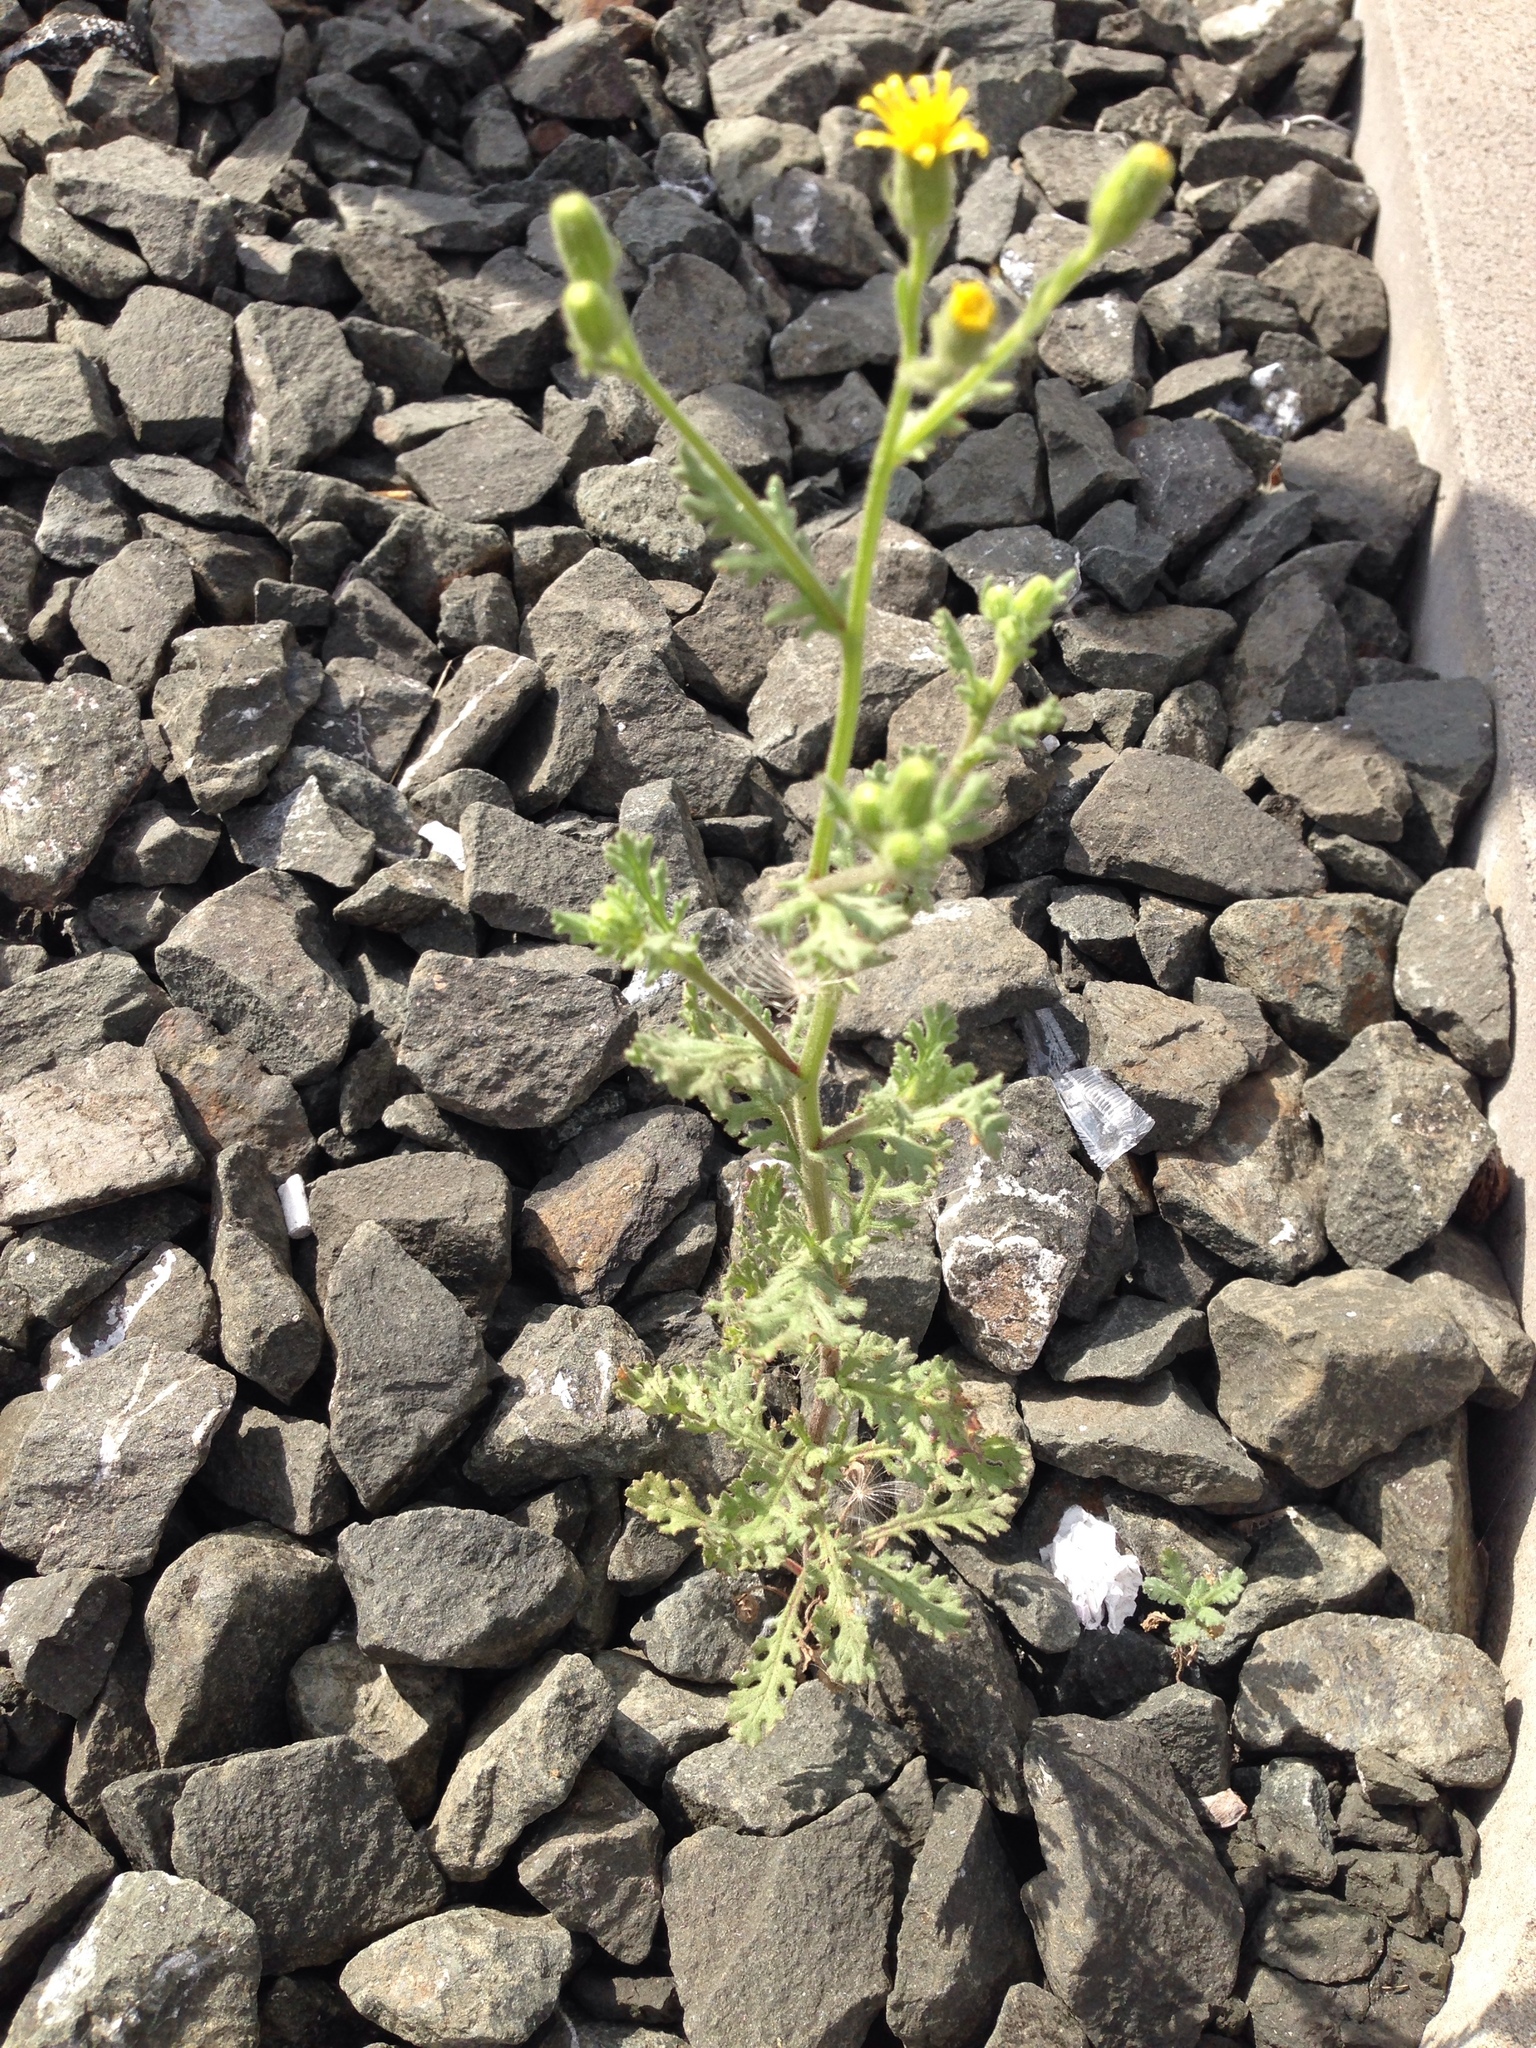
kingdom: Plantae
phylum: Tracheophyta
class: Magnoliopsida
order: Asterales
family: Asteraceae
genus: Senecio
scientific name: Senecio viscosus
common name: Sticky groundsel
